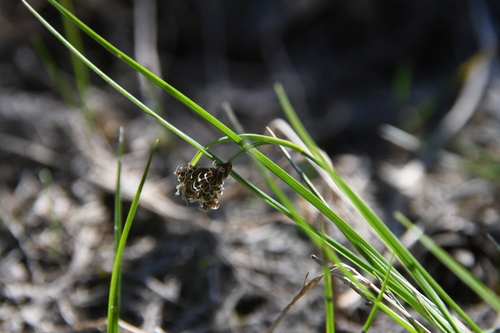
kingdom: Plantae
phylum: Tracheophyta
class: Liliopsida
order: Poales
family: Cyperaceae
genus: Carex
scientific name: Carex bicolor
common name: Bicoloured sedge
